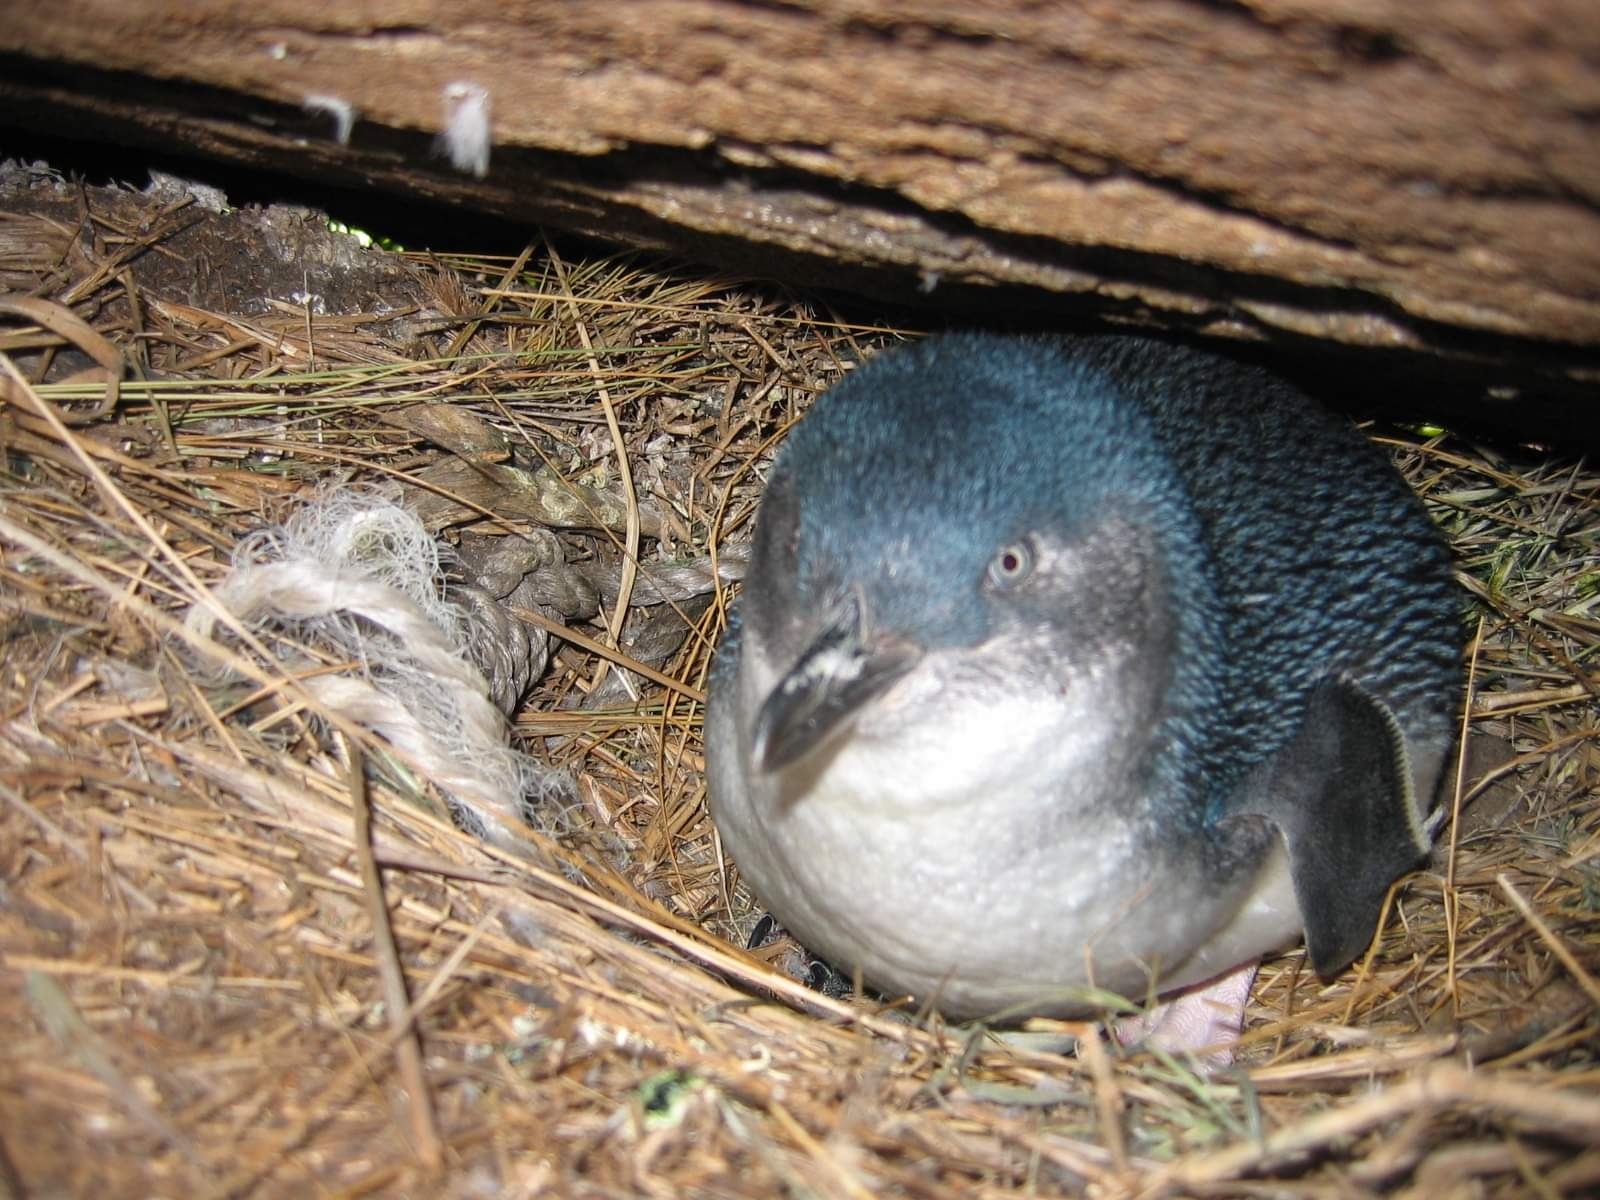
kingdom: Animalia
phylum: Chordata
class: Aves
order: Sphenisciformes
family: Spheniscidae
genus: Eudyptula
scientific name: Eudyptula minor
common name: Little penguin
